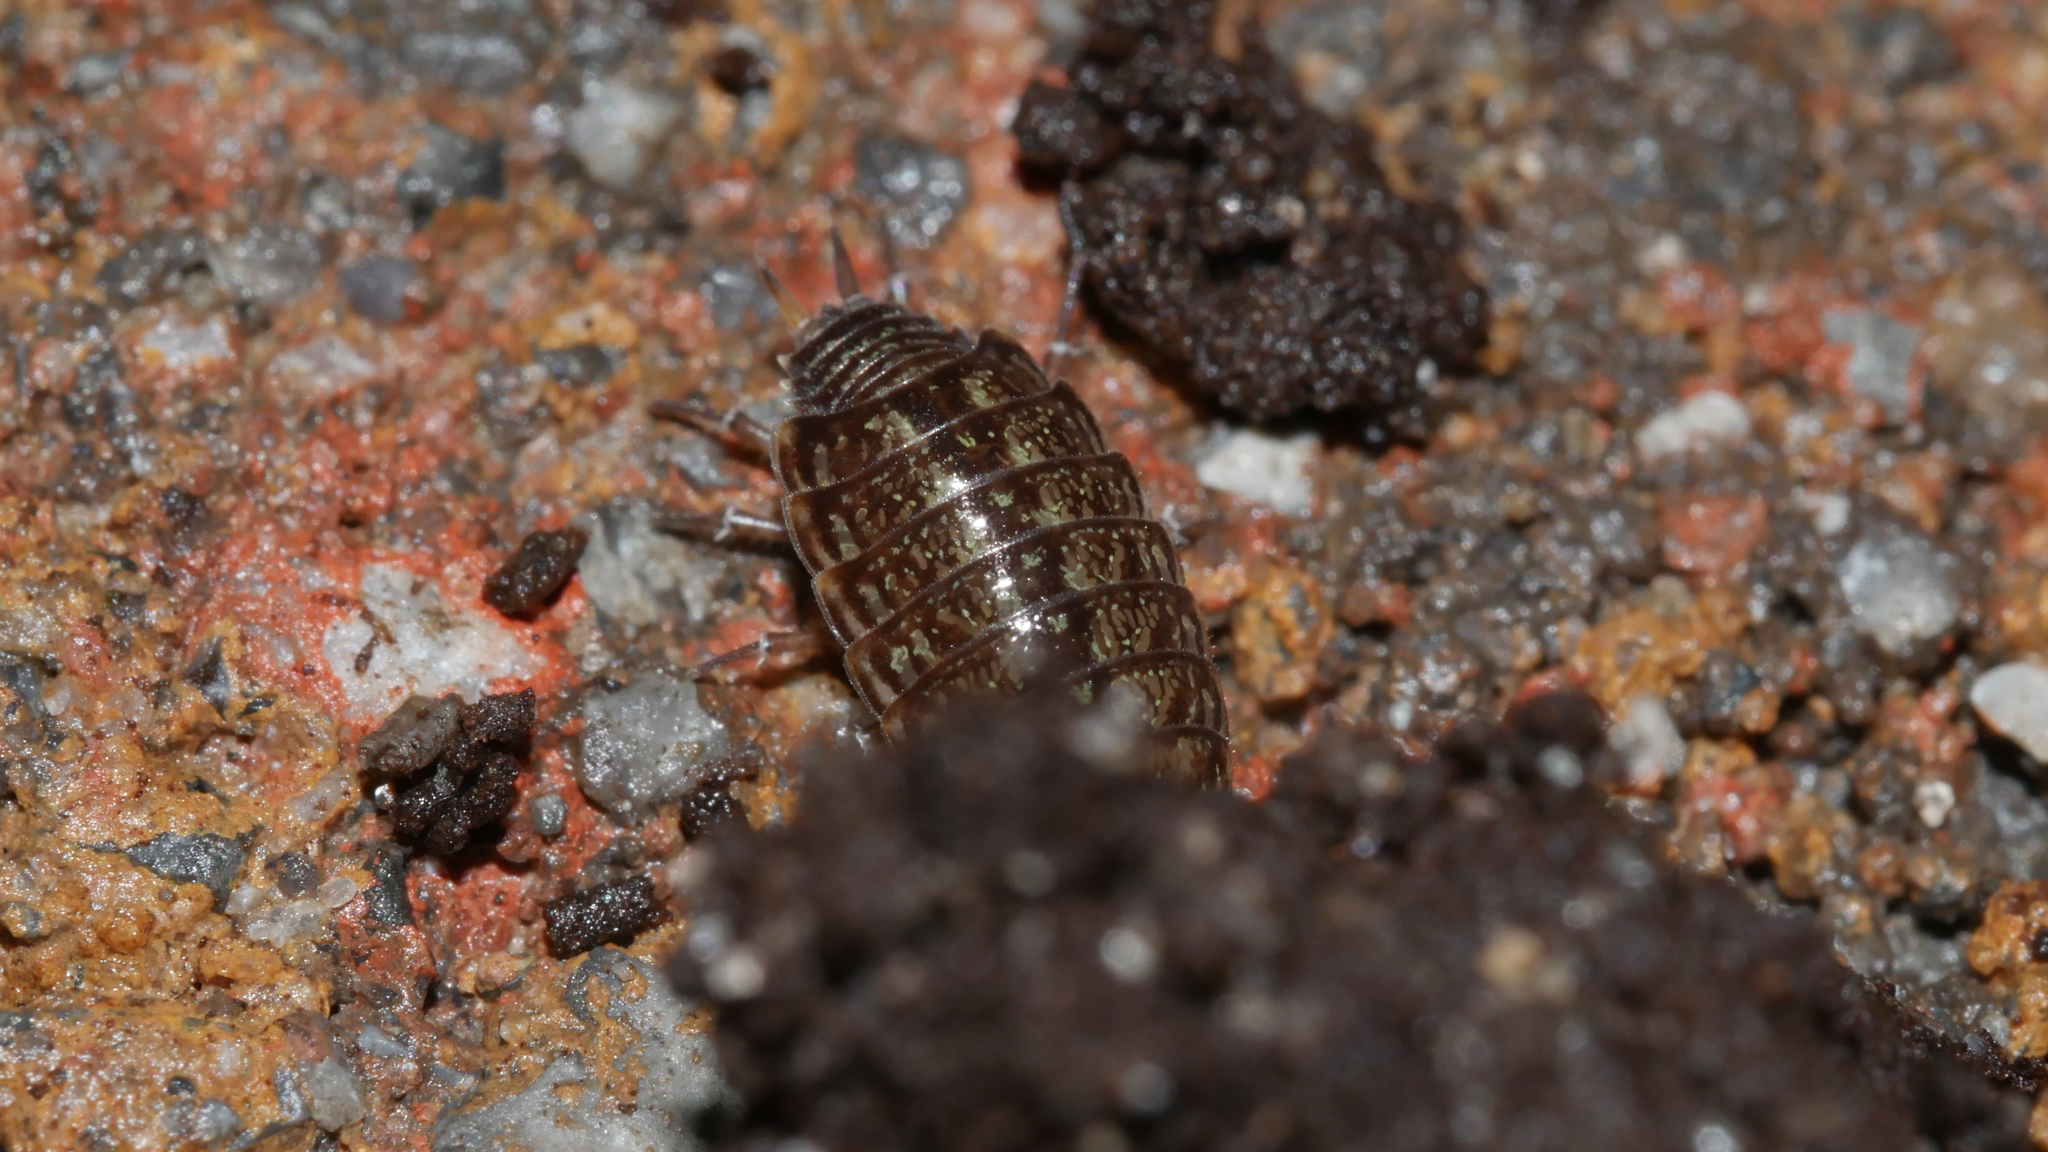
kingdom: Animalia
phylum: Arthropoda
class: Malacostraca
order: Isopoda
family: Philosciidae
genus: Philoscia
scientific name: Philoscia muscorum
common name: Common striped woodlouse
